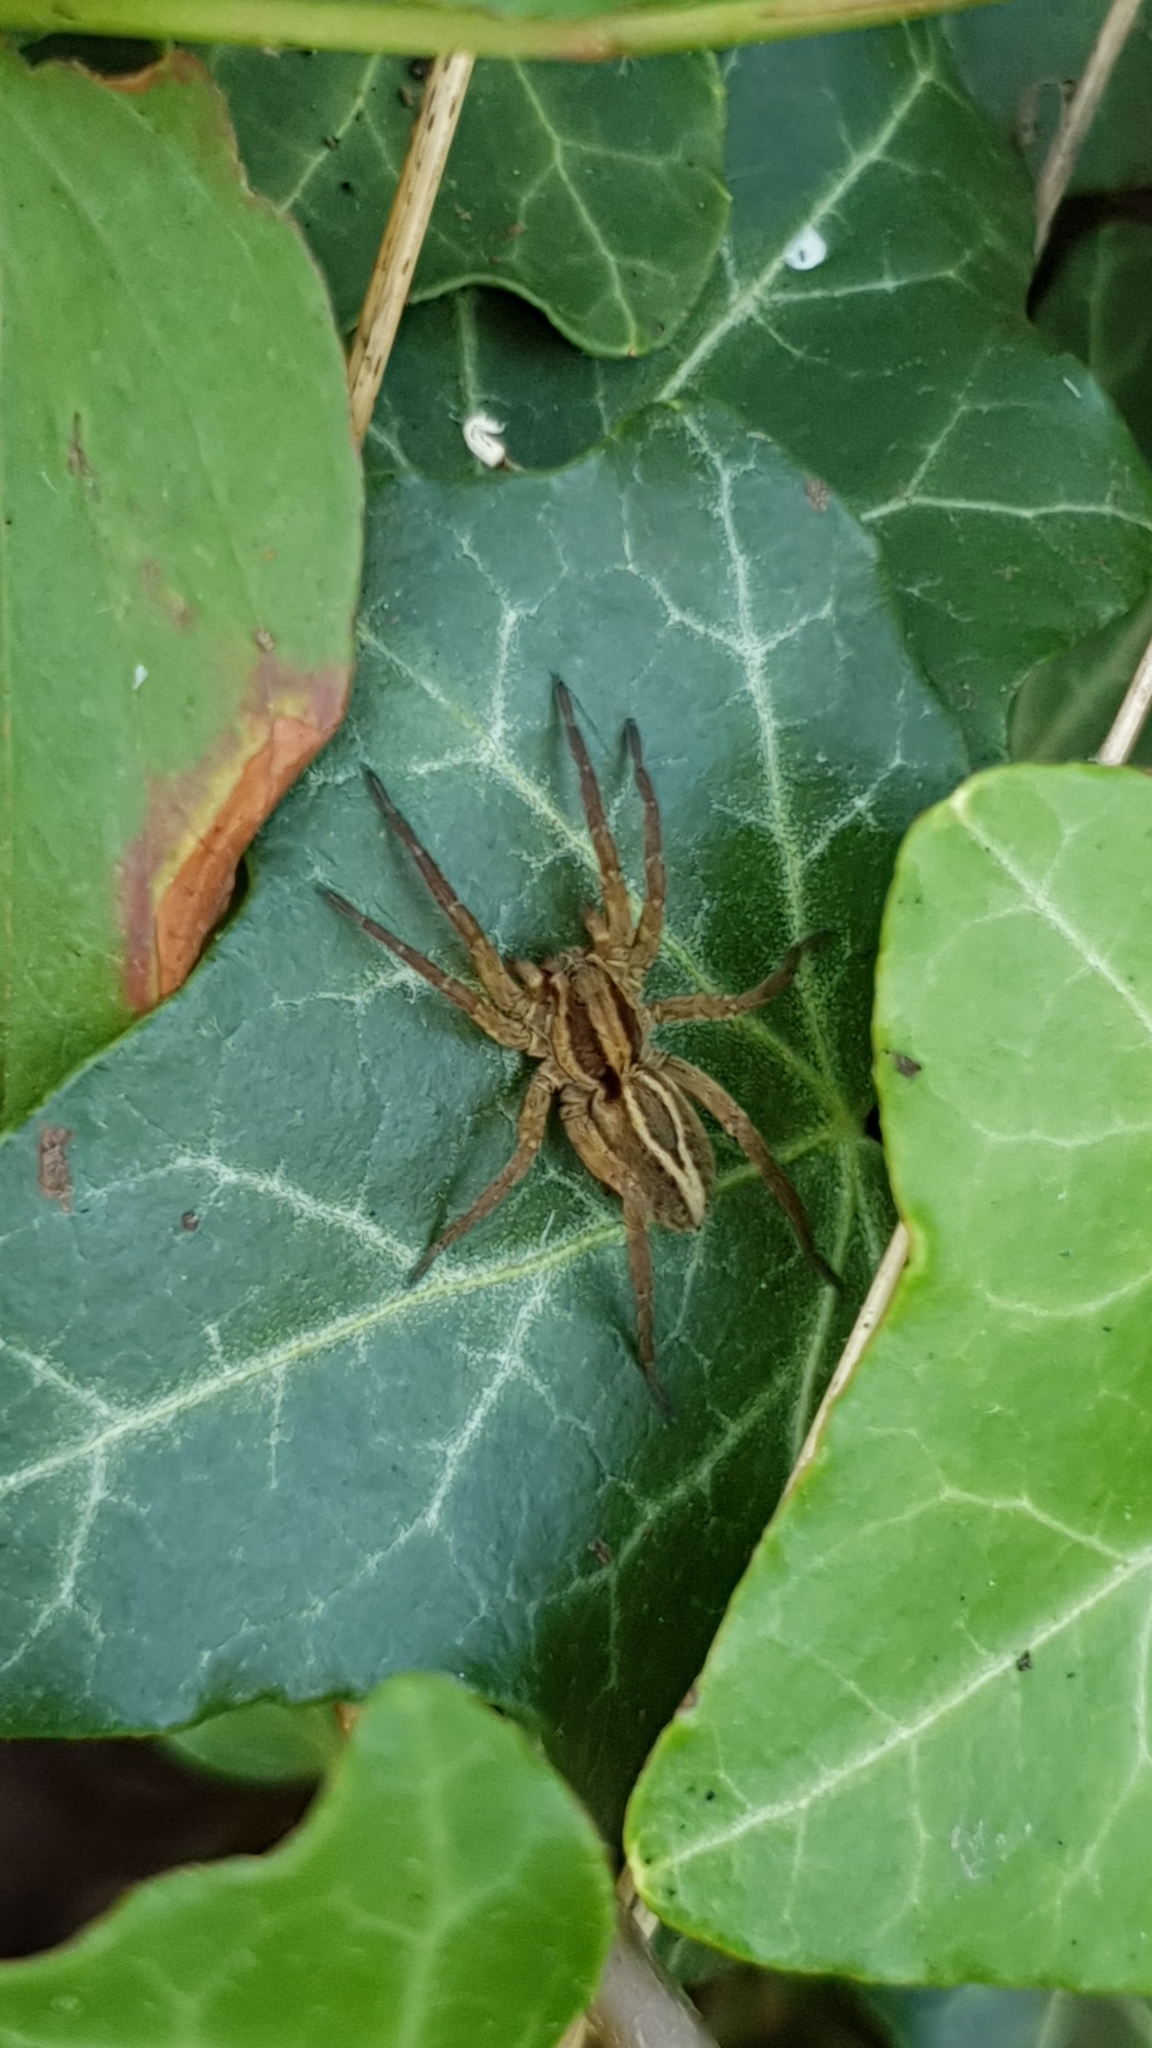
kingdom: Animalia
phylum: Arthropoda
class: Arachnida
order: Araneae
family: Lycosidae
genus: Alopecosa
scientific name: Alopecosa
